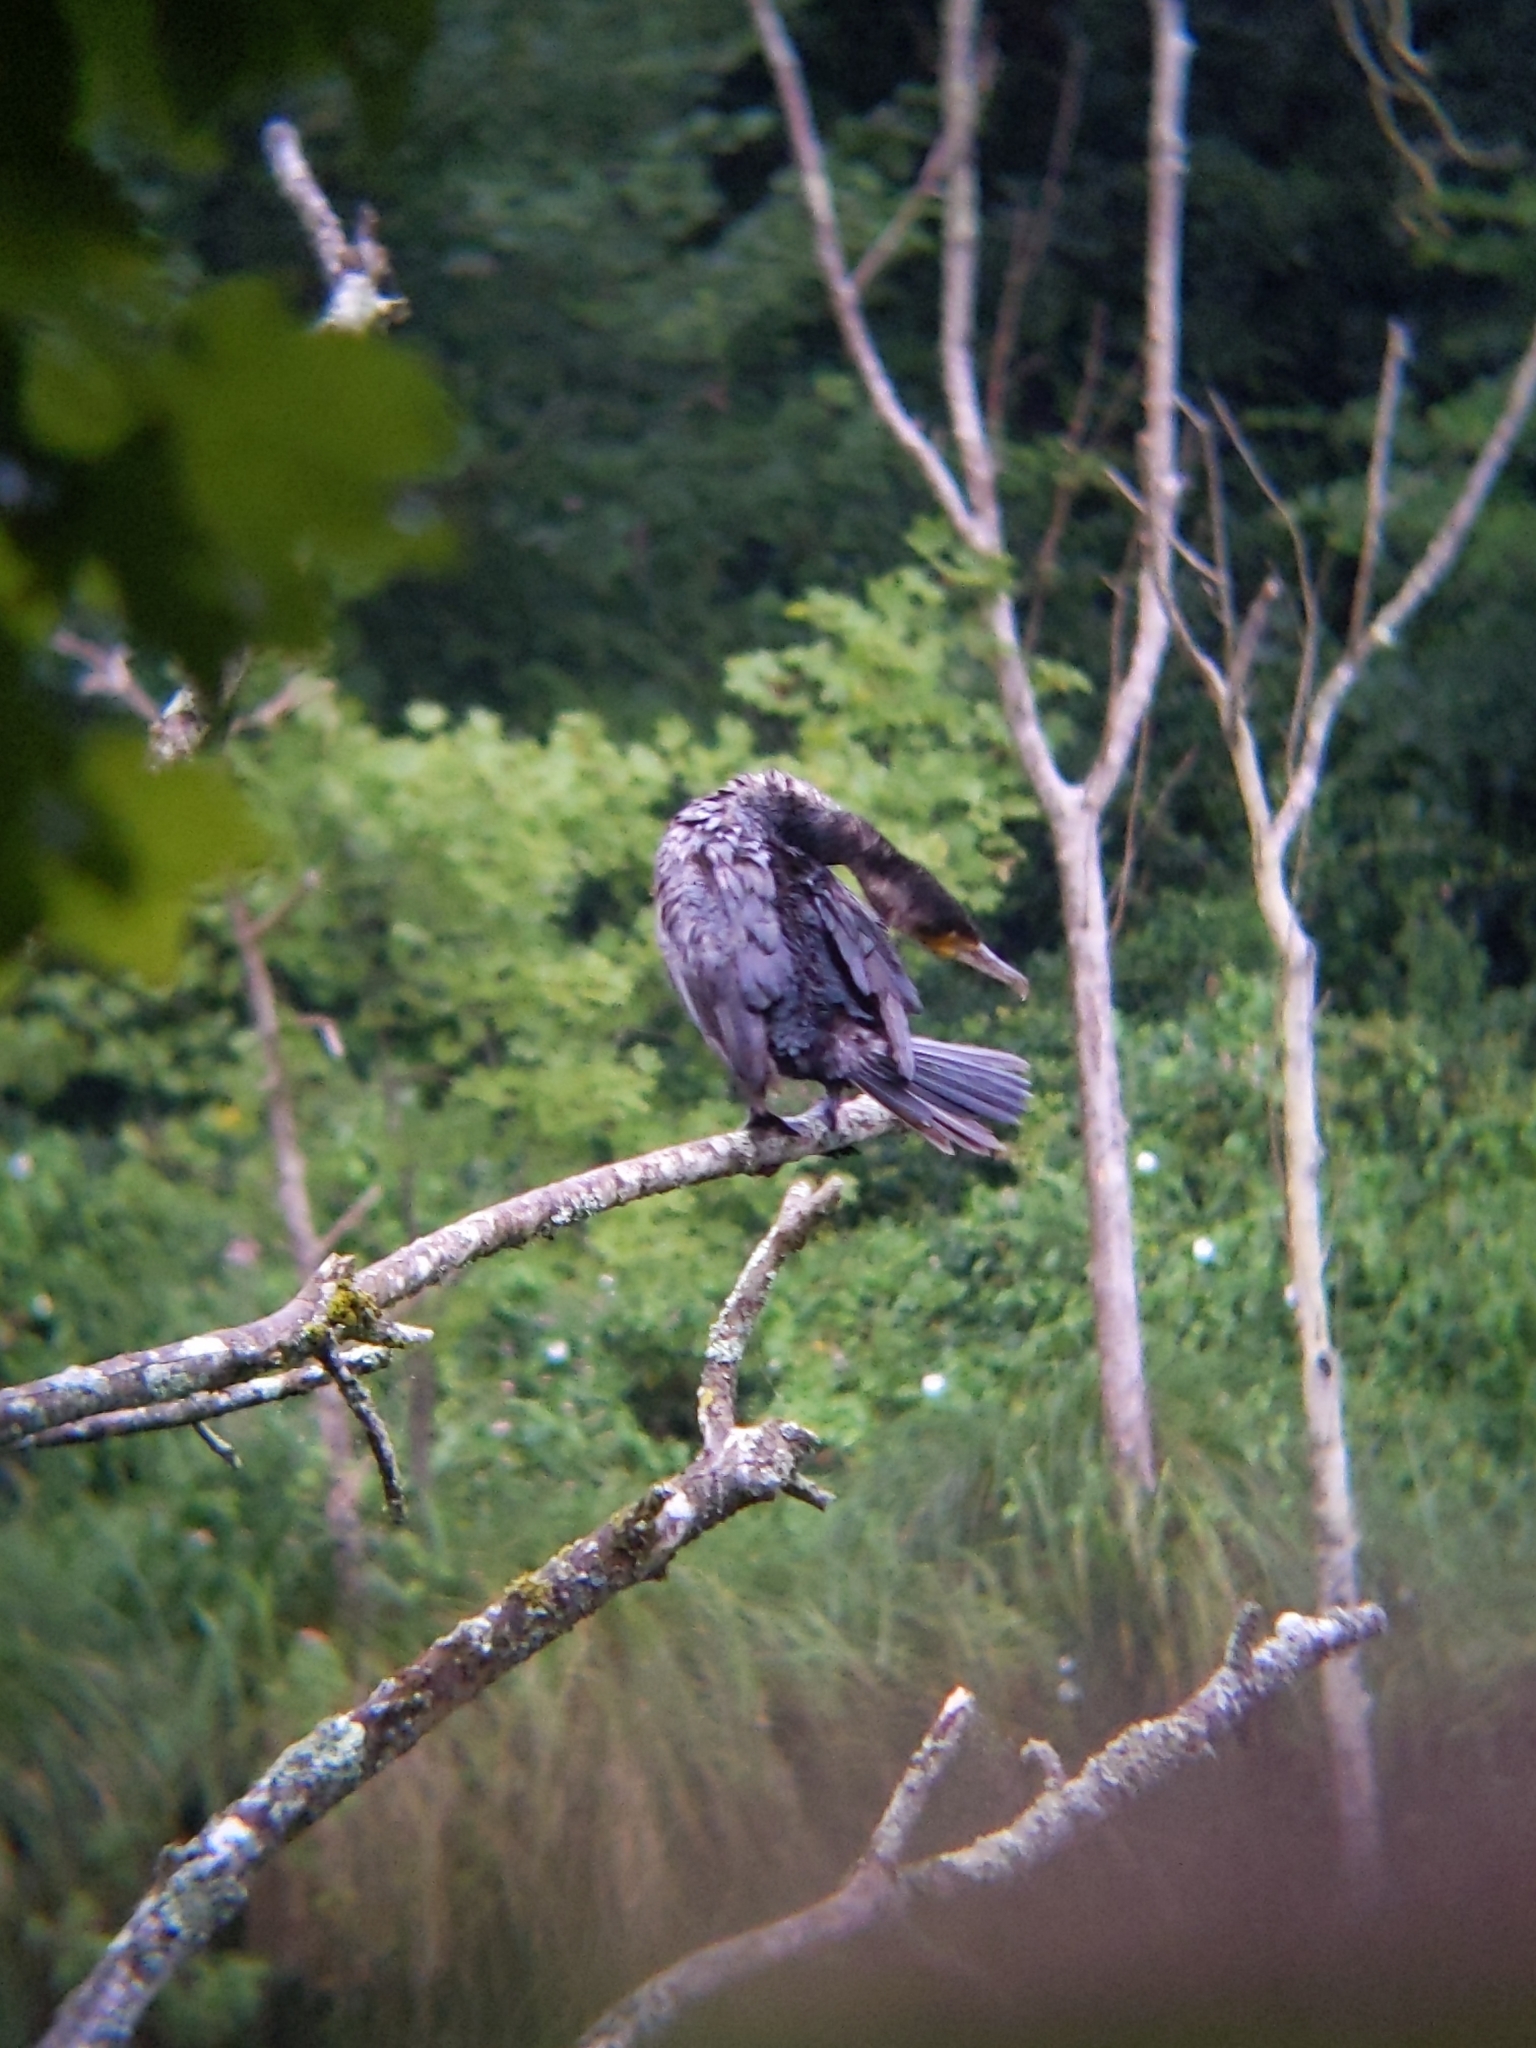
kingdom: Animalia
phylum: Chordata
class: Aves
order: Suliformes
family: Phalacrocoracidae
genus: Phalacrocorax
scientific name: Phalacrocorax carbo
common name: Great cormorant
